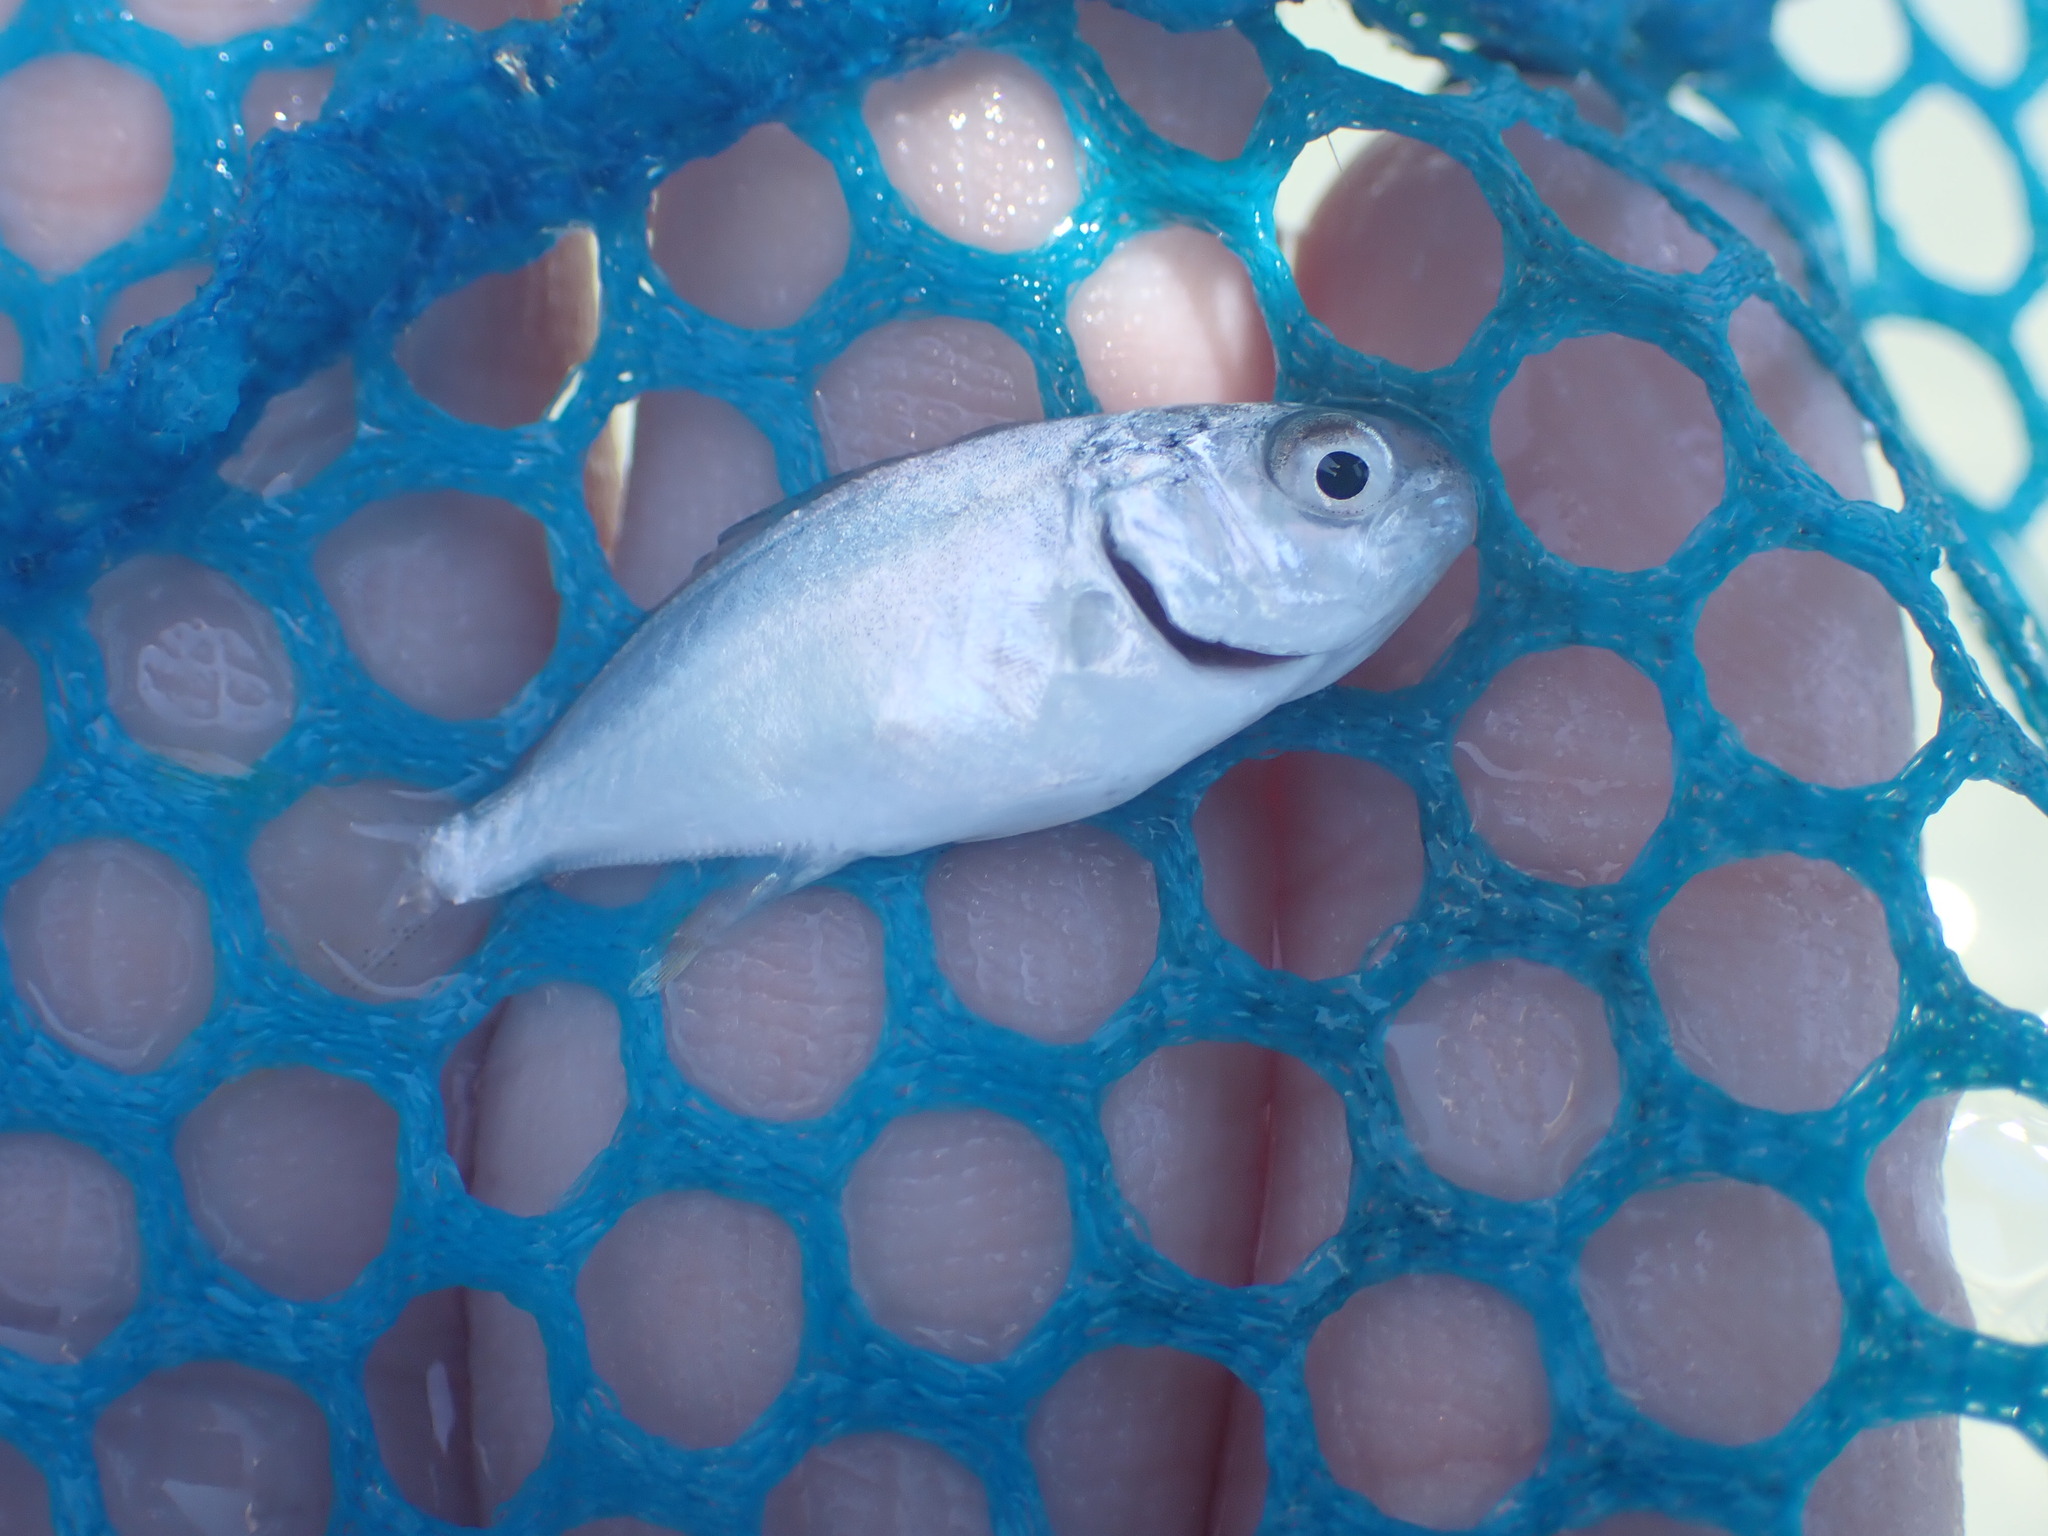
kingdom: Animalia
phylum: Chordata
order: Perciformes
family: Carangidae
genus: Trachinotus
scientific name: Trachinotus carolinus
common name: Florida pompano
